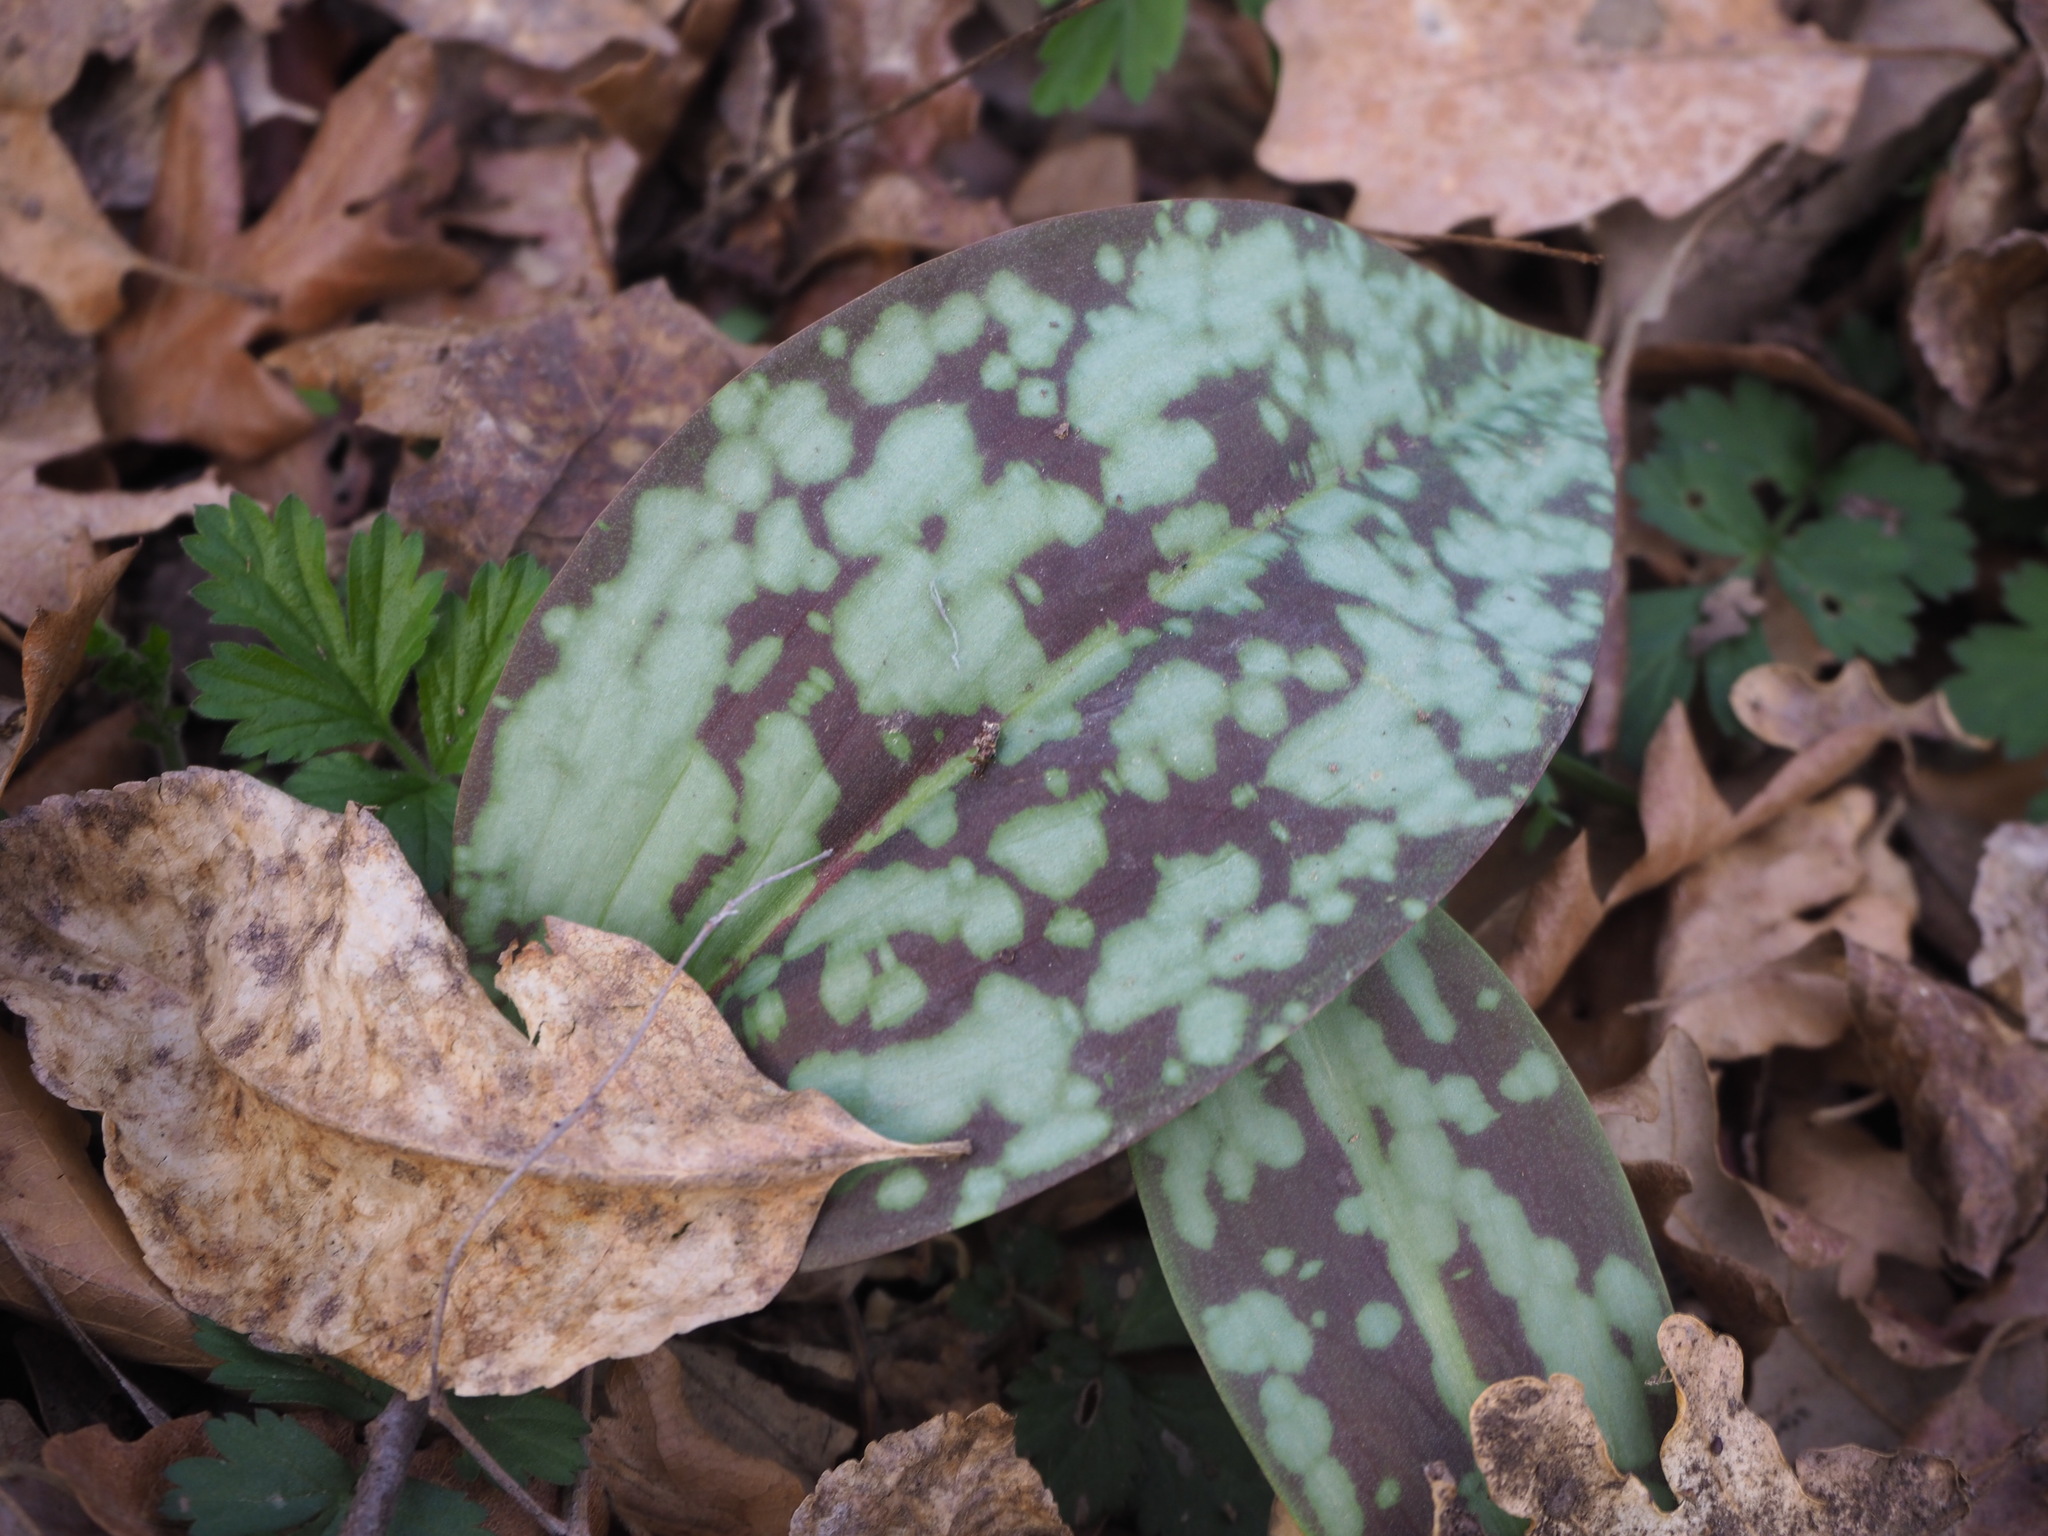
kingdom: Plantae
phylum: Tracheophyta
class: Liliopsida
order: Liliales
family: Liliaceae
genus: Erythronium
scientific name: Erythronium dens-canis
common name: Dog's-tooth-violet
